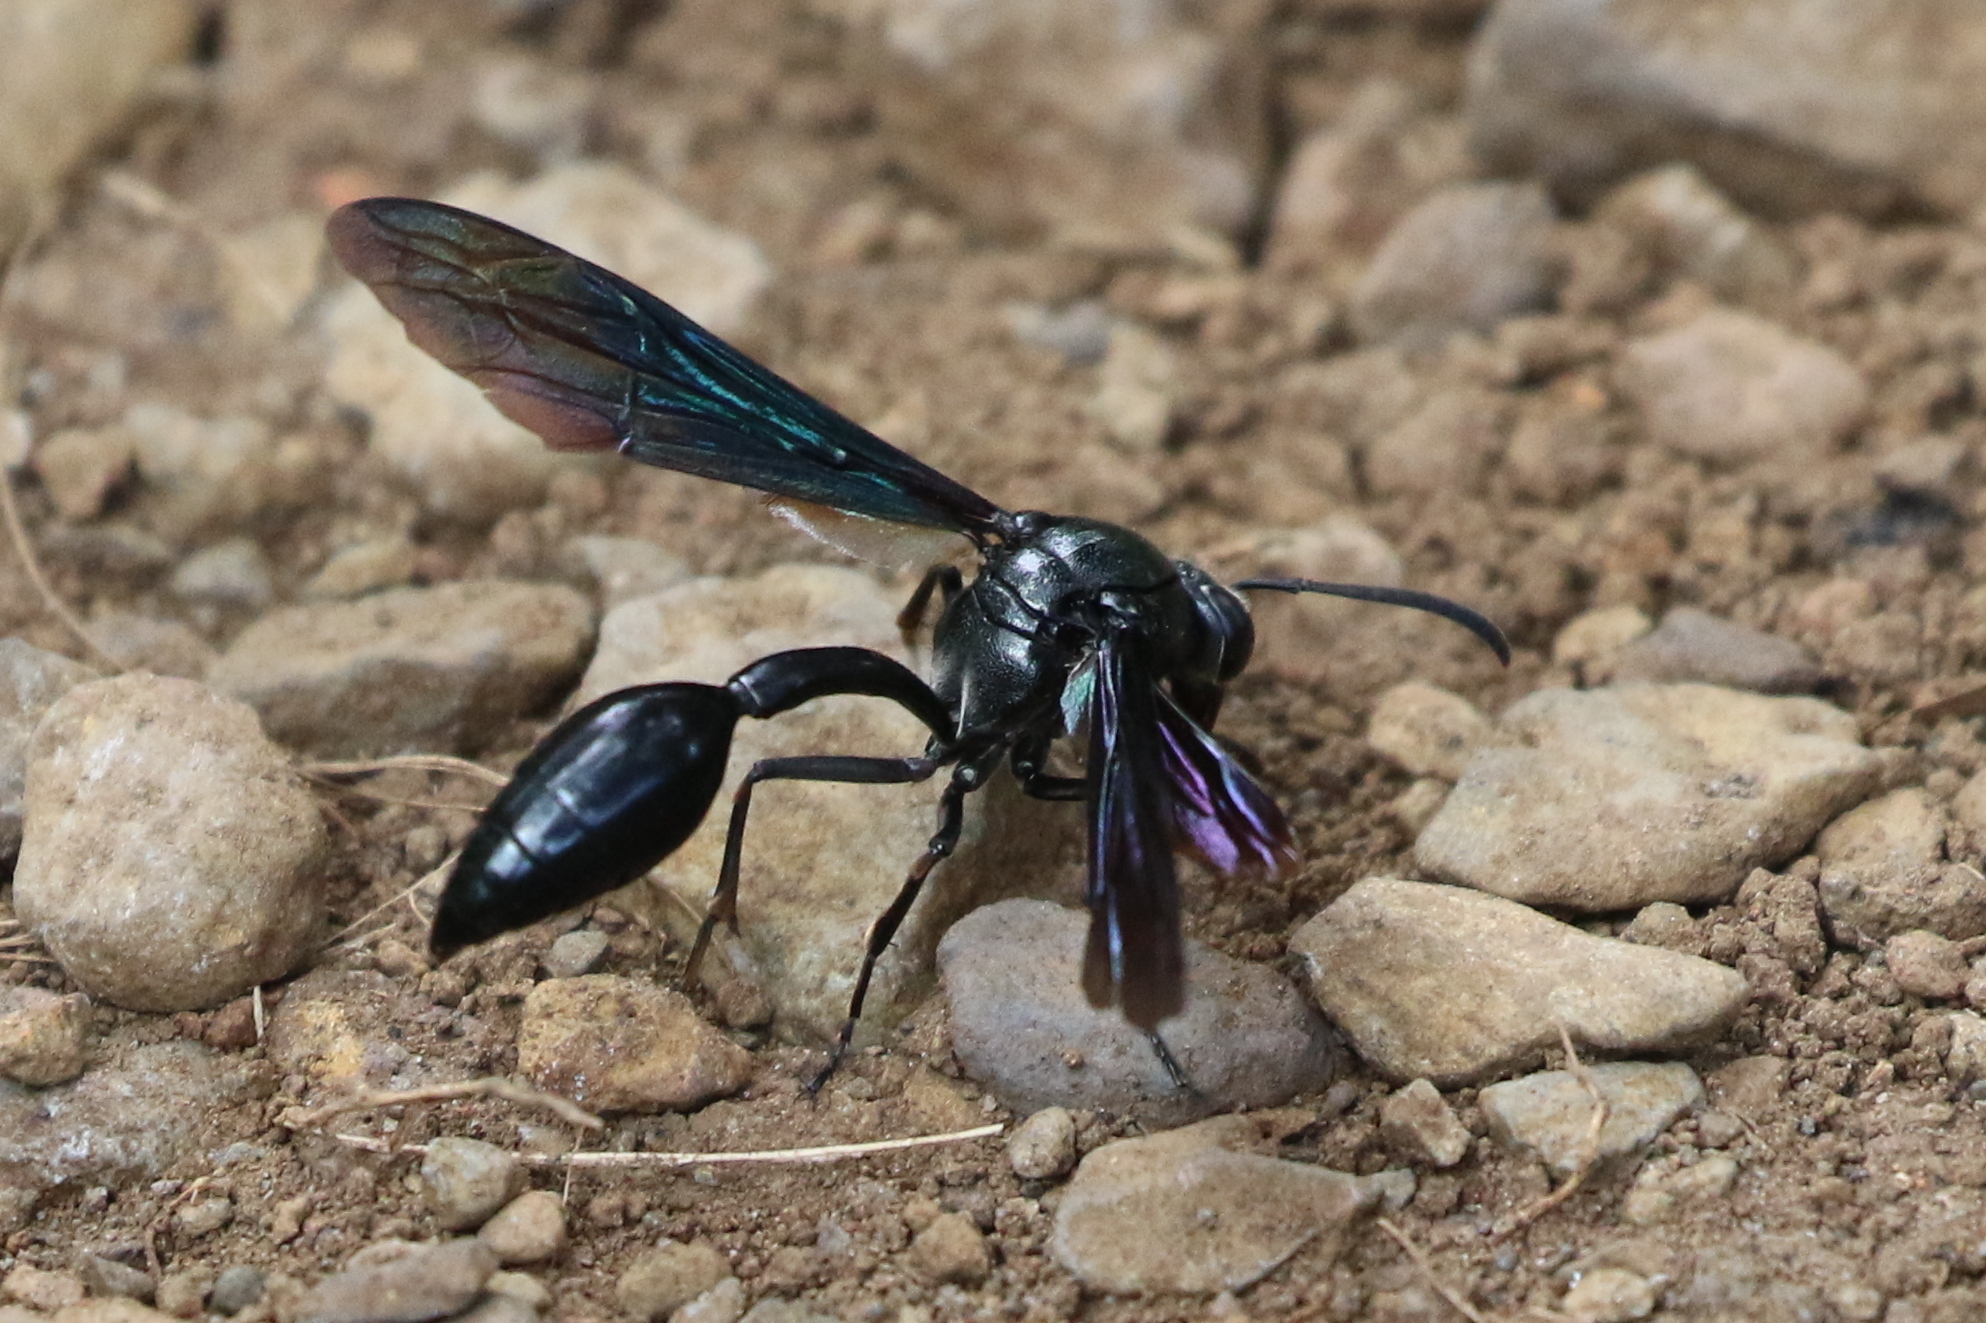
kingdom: Animalia
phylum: Arthropoda
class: Insecta
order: Hymenoptera
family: Eumenidae
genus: Phimenes
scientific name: Phimenes curvatus
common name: Black delta vespid wasp
